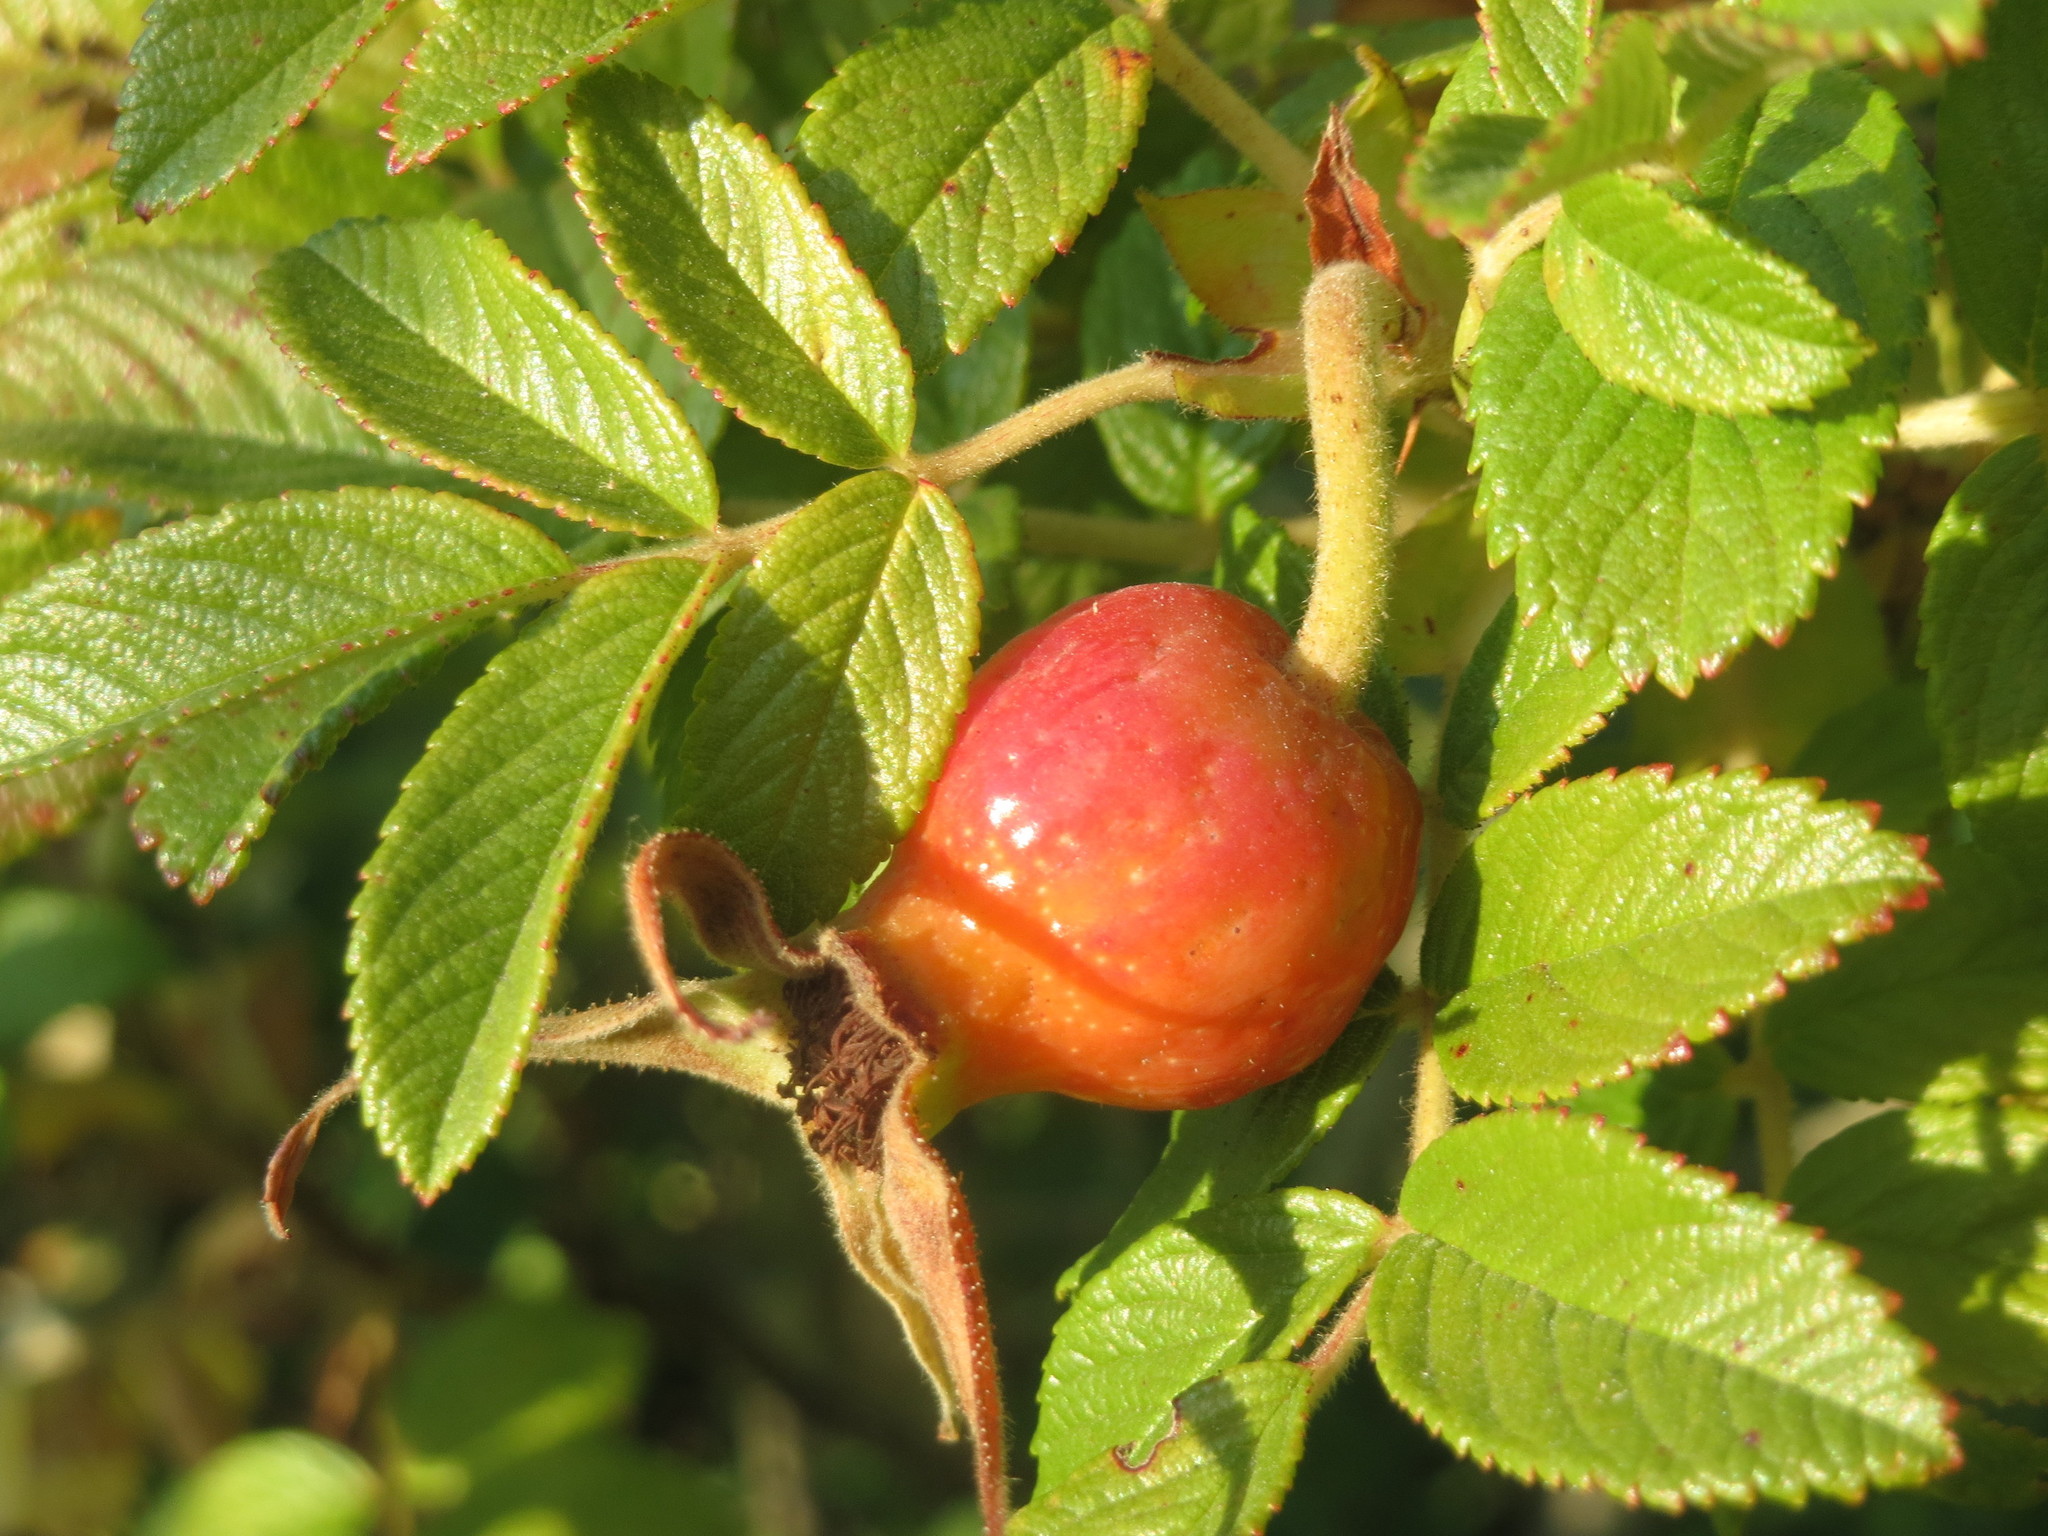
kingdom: Plantae
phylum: Tracheophyta
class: Magnoliopsida
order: Rosales
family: Rosaceae
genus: Rosa
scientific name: Rosa rugosa
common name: Japanese rose
